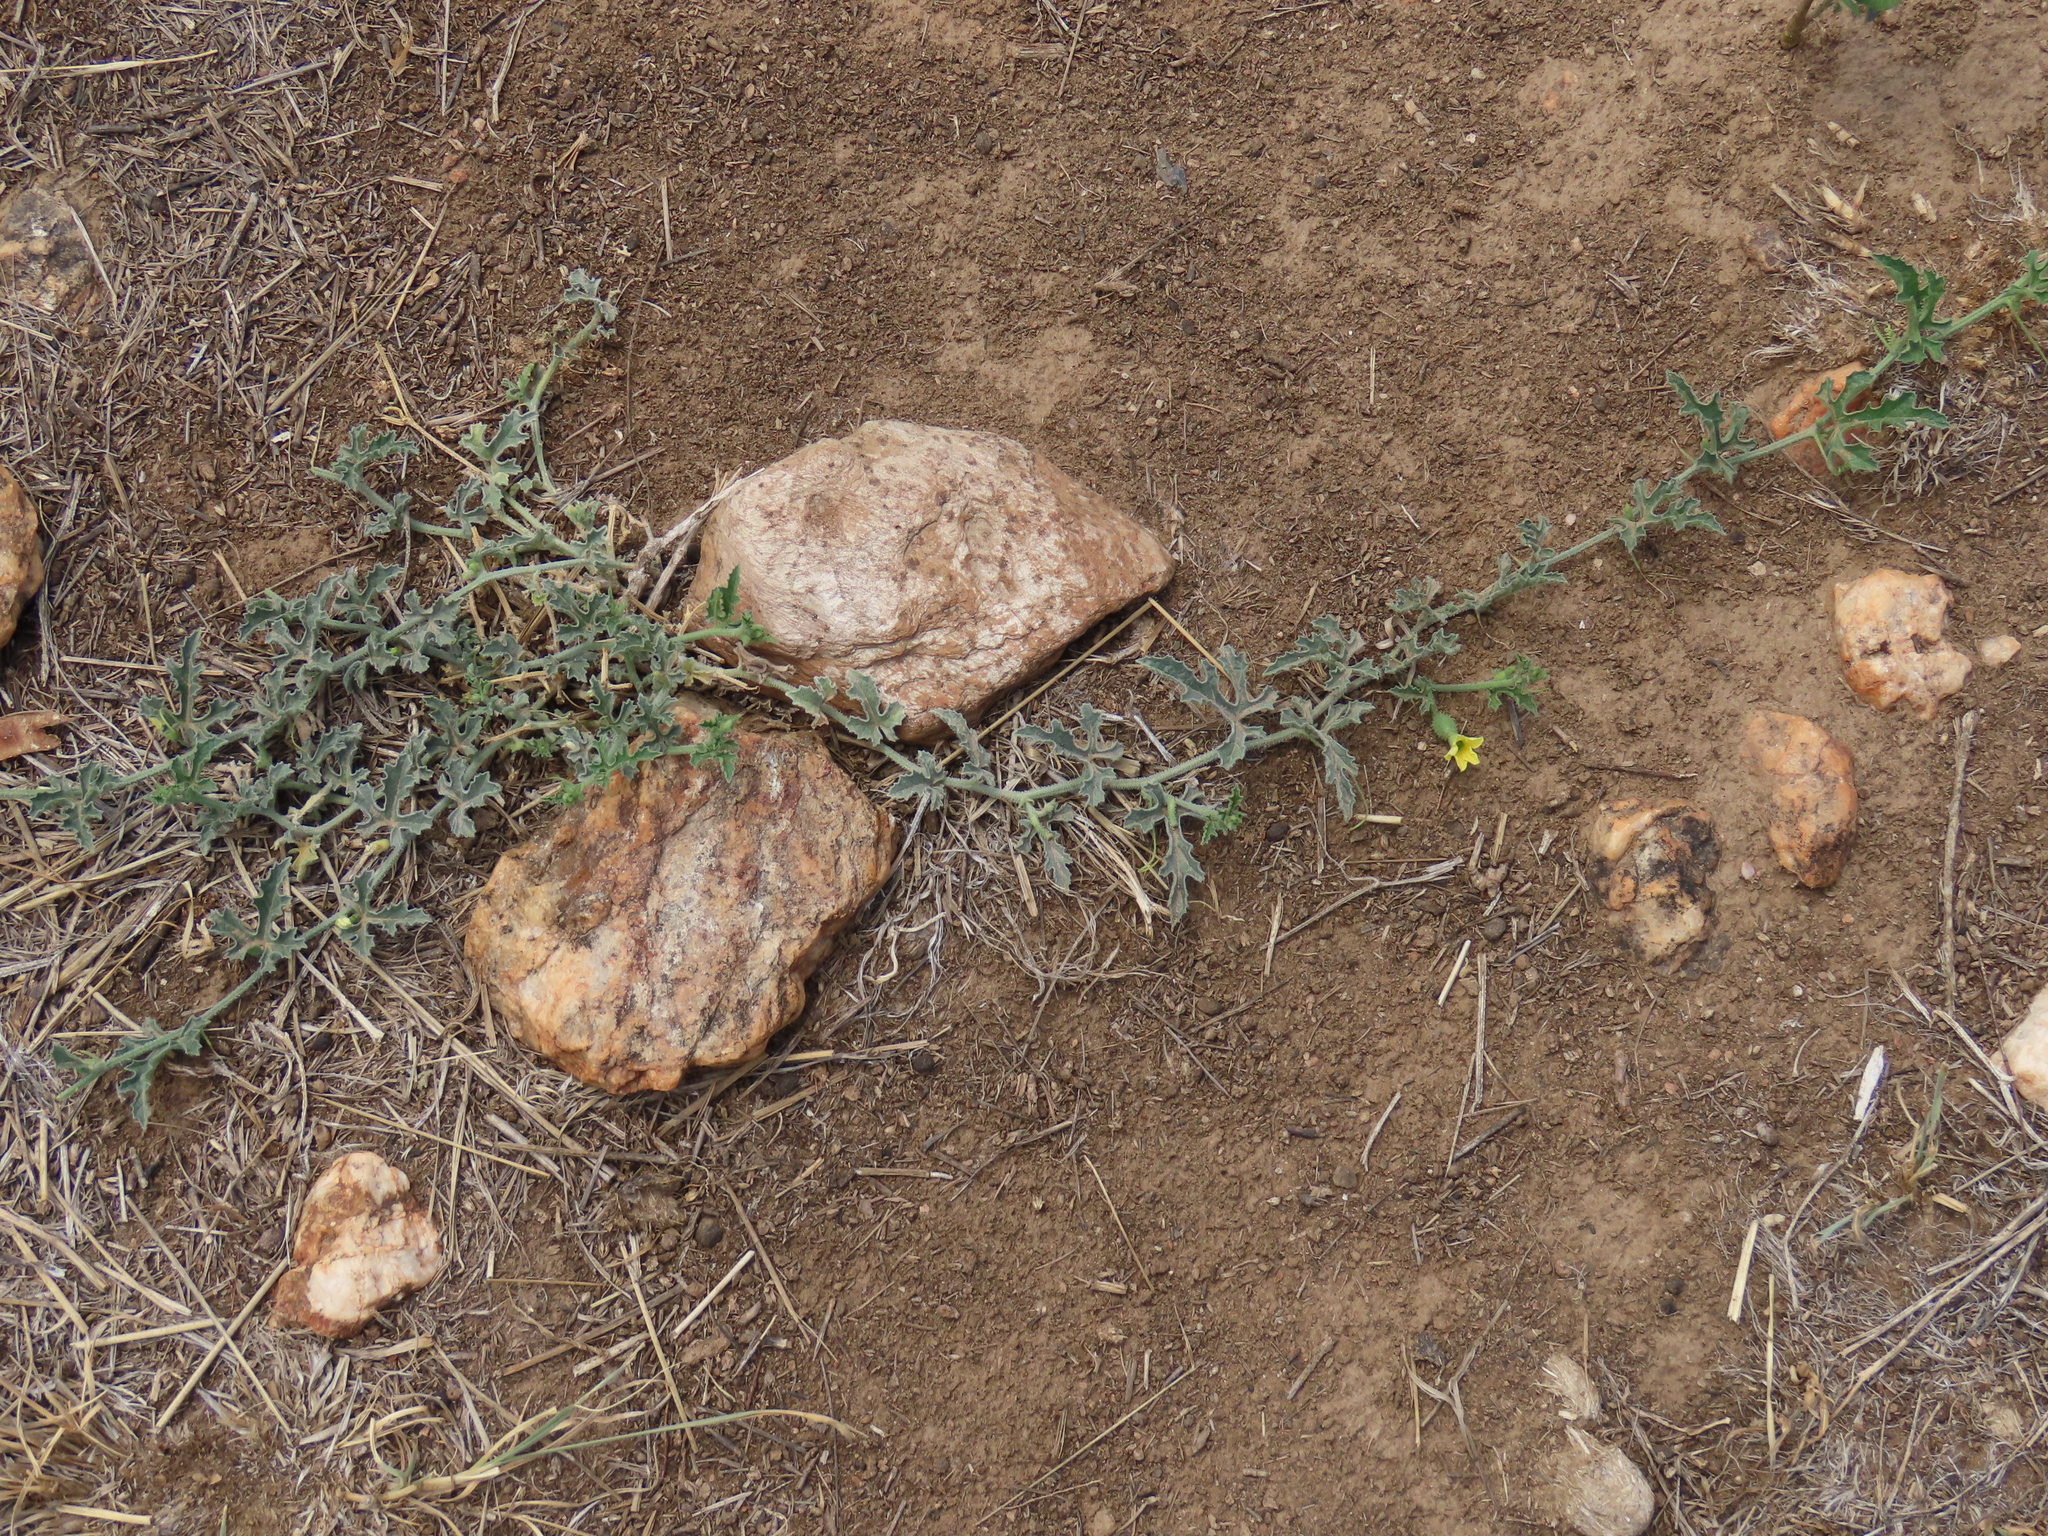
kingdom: Plantae
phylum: Tracheophyta
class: Magnoliopsida
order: Cucurbitales
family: Cucurbitaceae
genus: Cucumis
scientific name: Cucumis africanus
